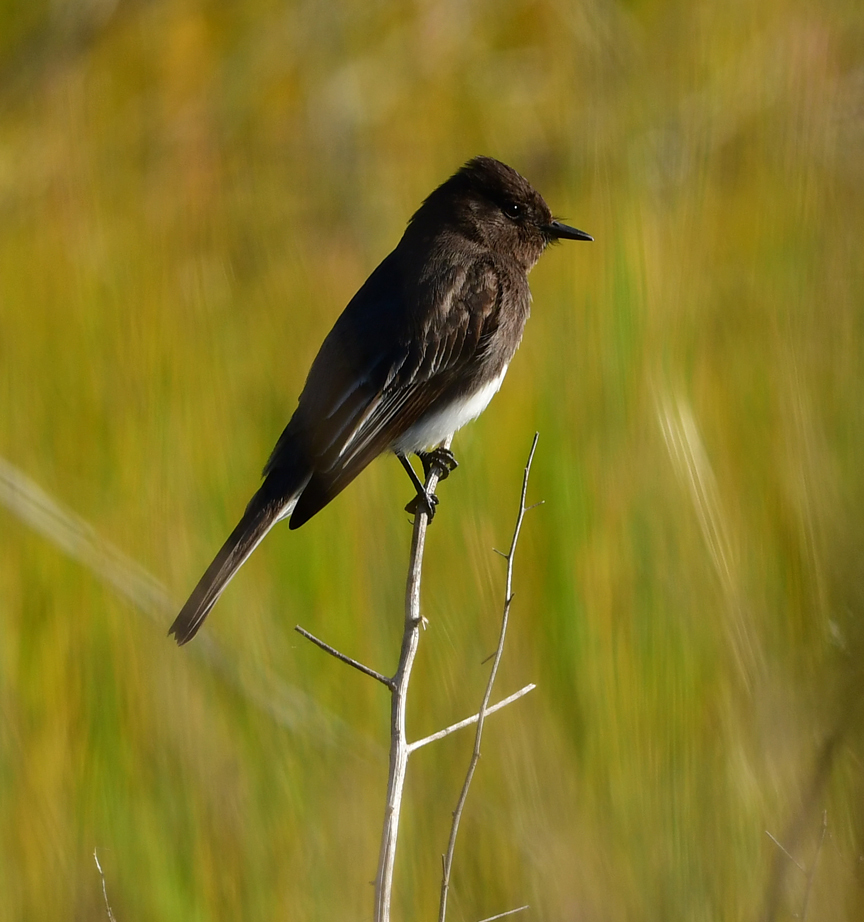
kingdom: Animalia
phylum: Chordata
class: Aves
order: Passeriformes
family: Tyrannidae
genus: Sayornis
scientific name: Sayornis nigricans
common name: Black phoebe
